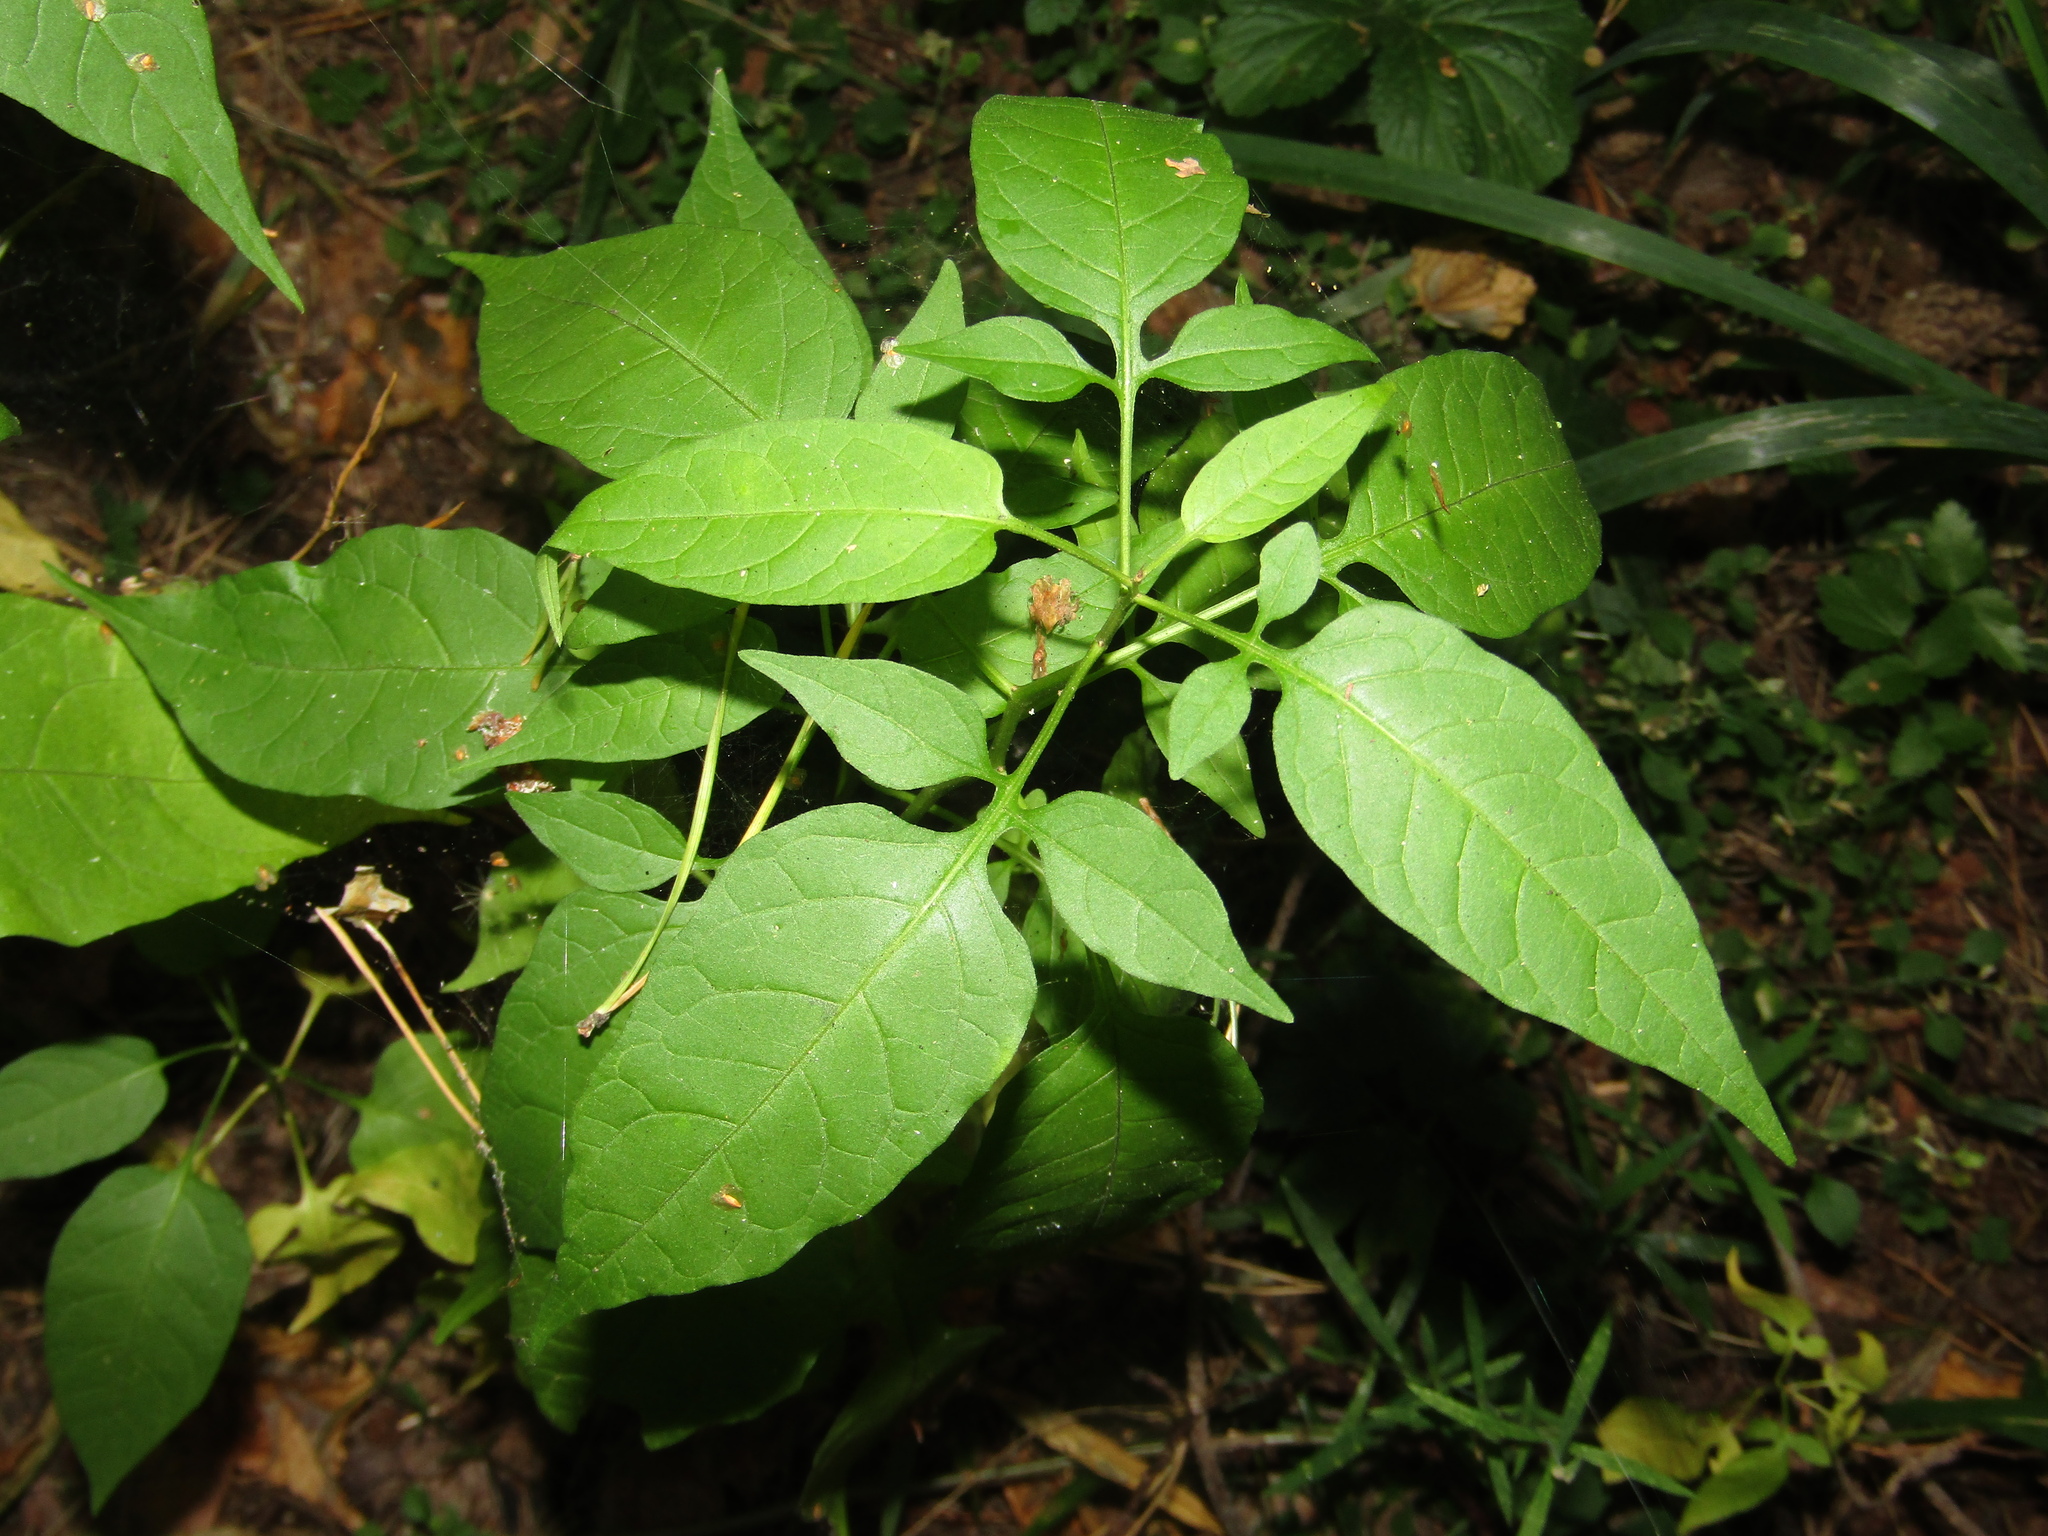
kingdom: Plantae
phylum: Tracheophyta
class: Magnoliopsida
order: Solanales
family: Solanaceae
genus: Solanum
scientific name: Solanum dulcamara
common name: Climbing nightshade
